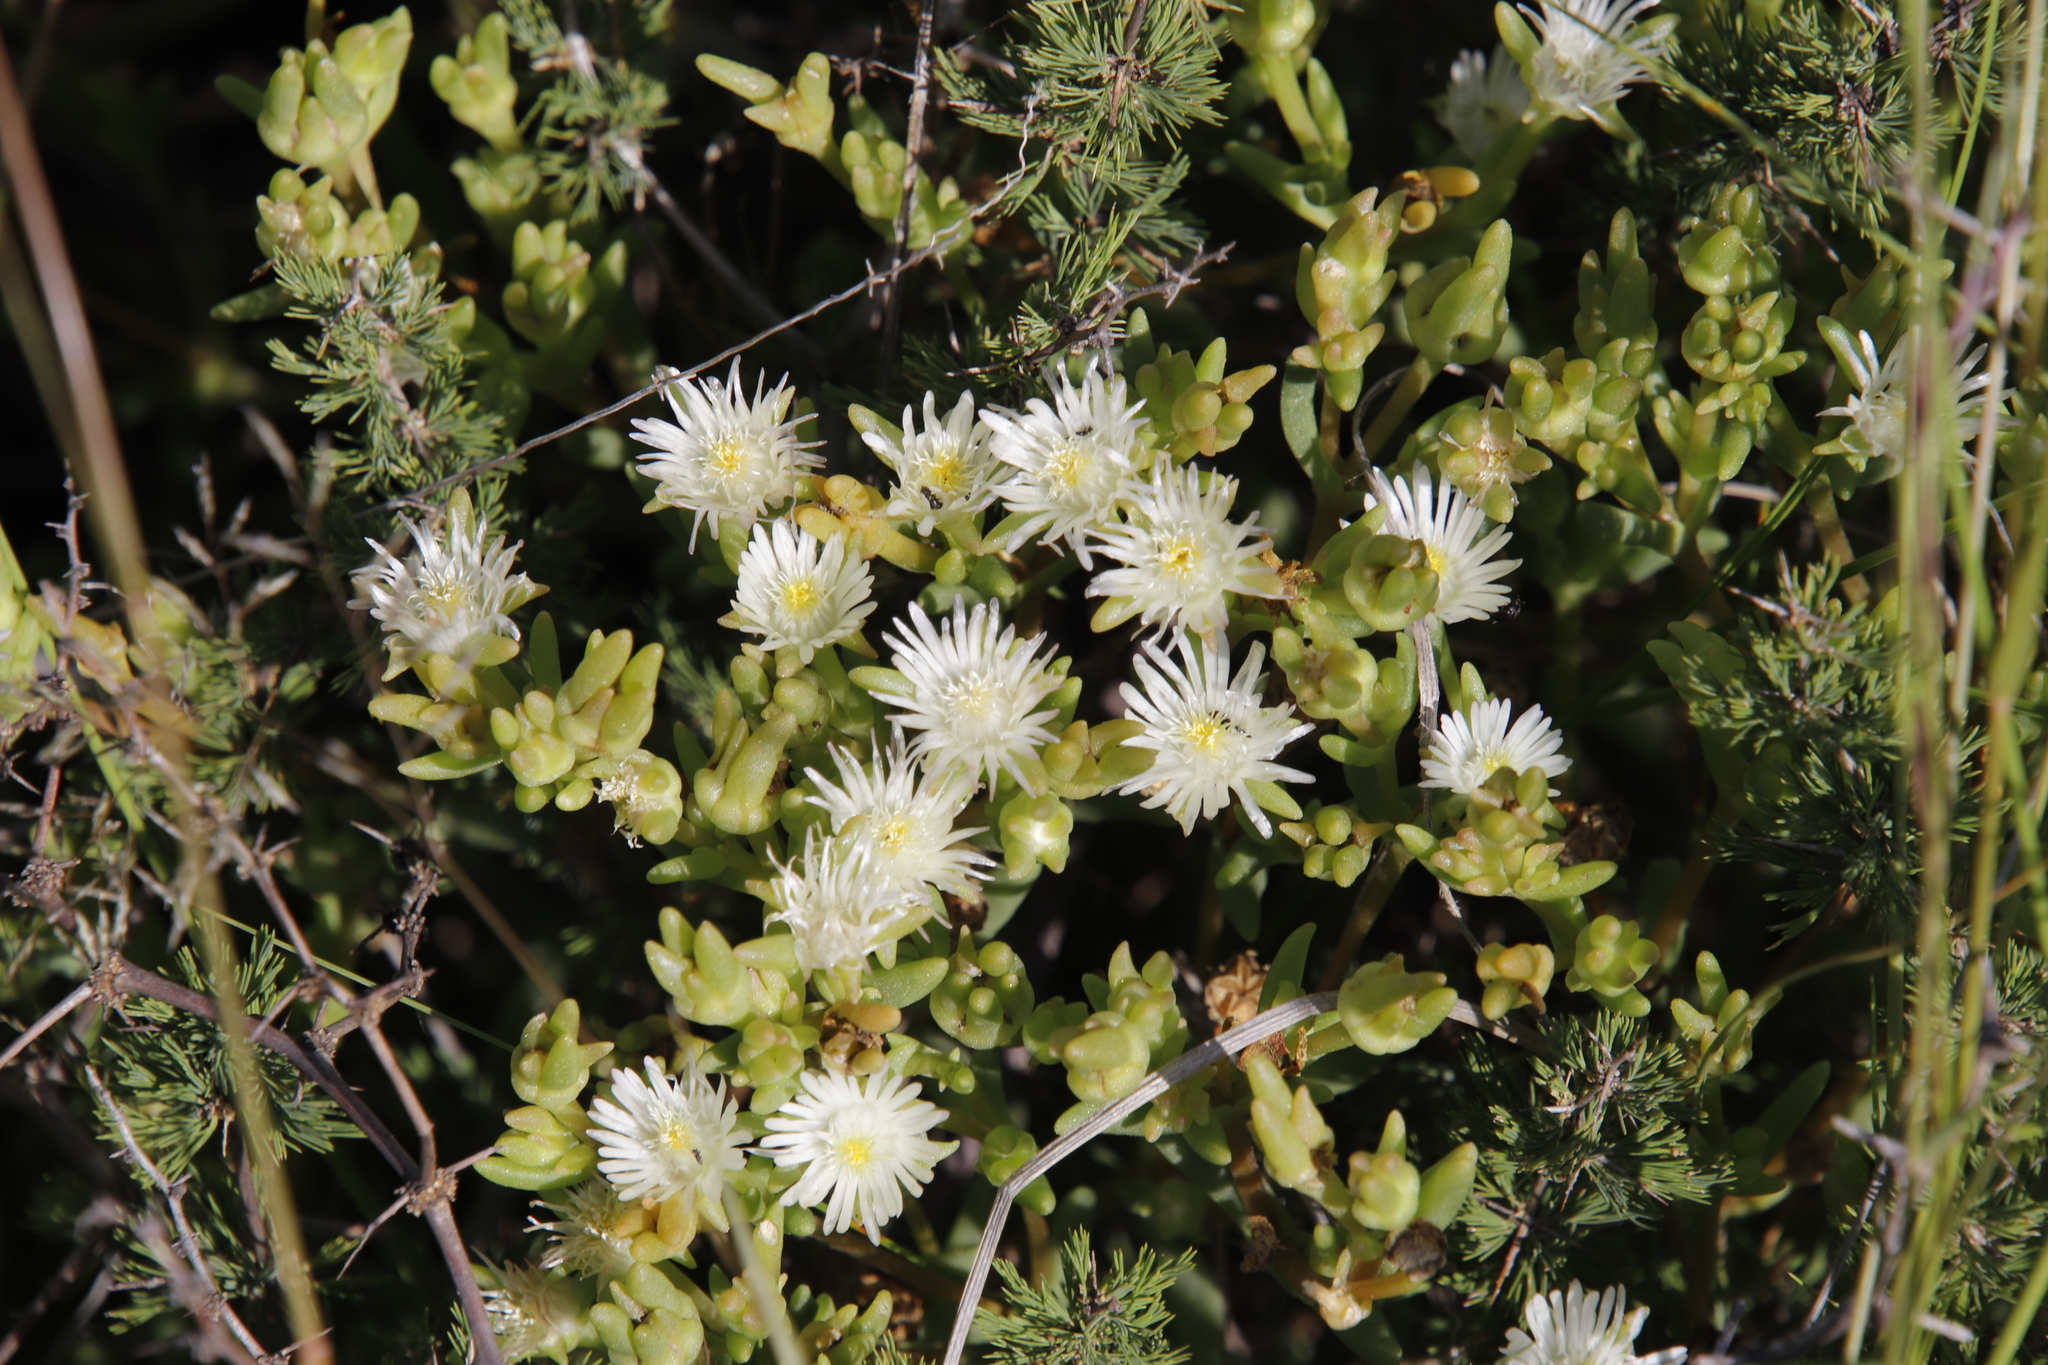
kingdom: Plantae
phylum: Tracheophyta
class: Magnoliopsida
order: Caryophyllales
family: Aizoaceae
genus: Delosperma
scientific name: Delosperma pottsii
